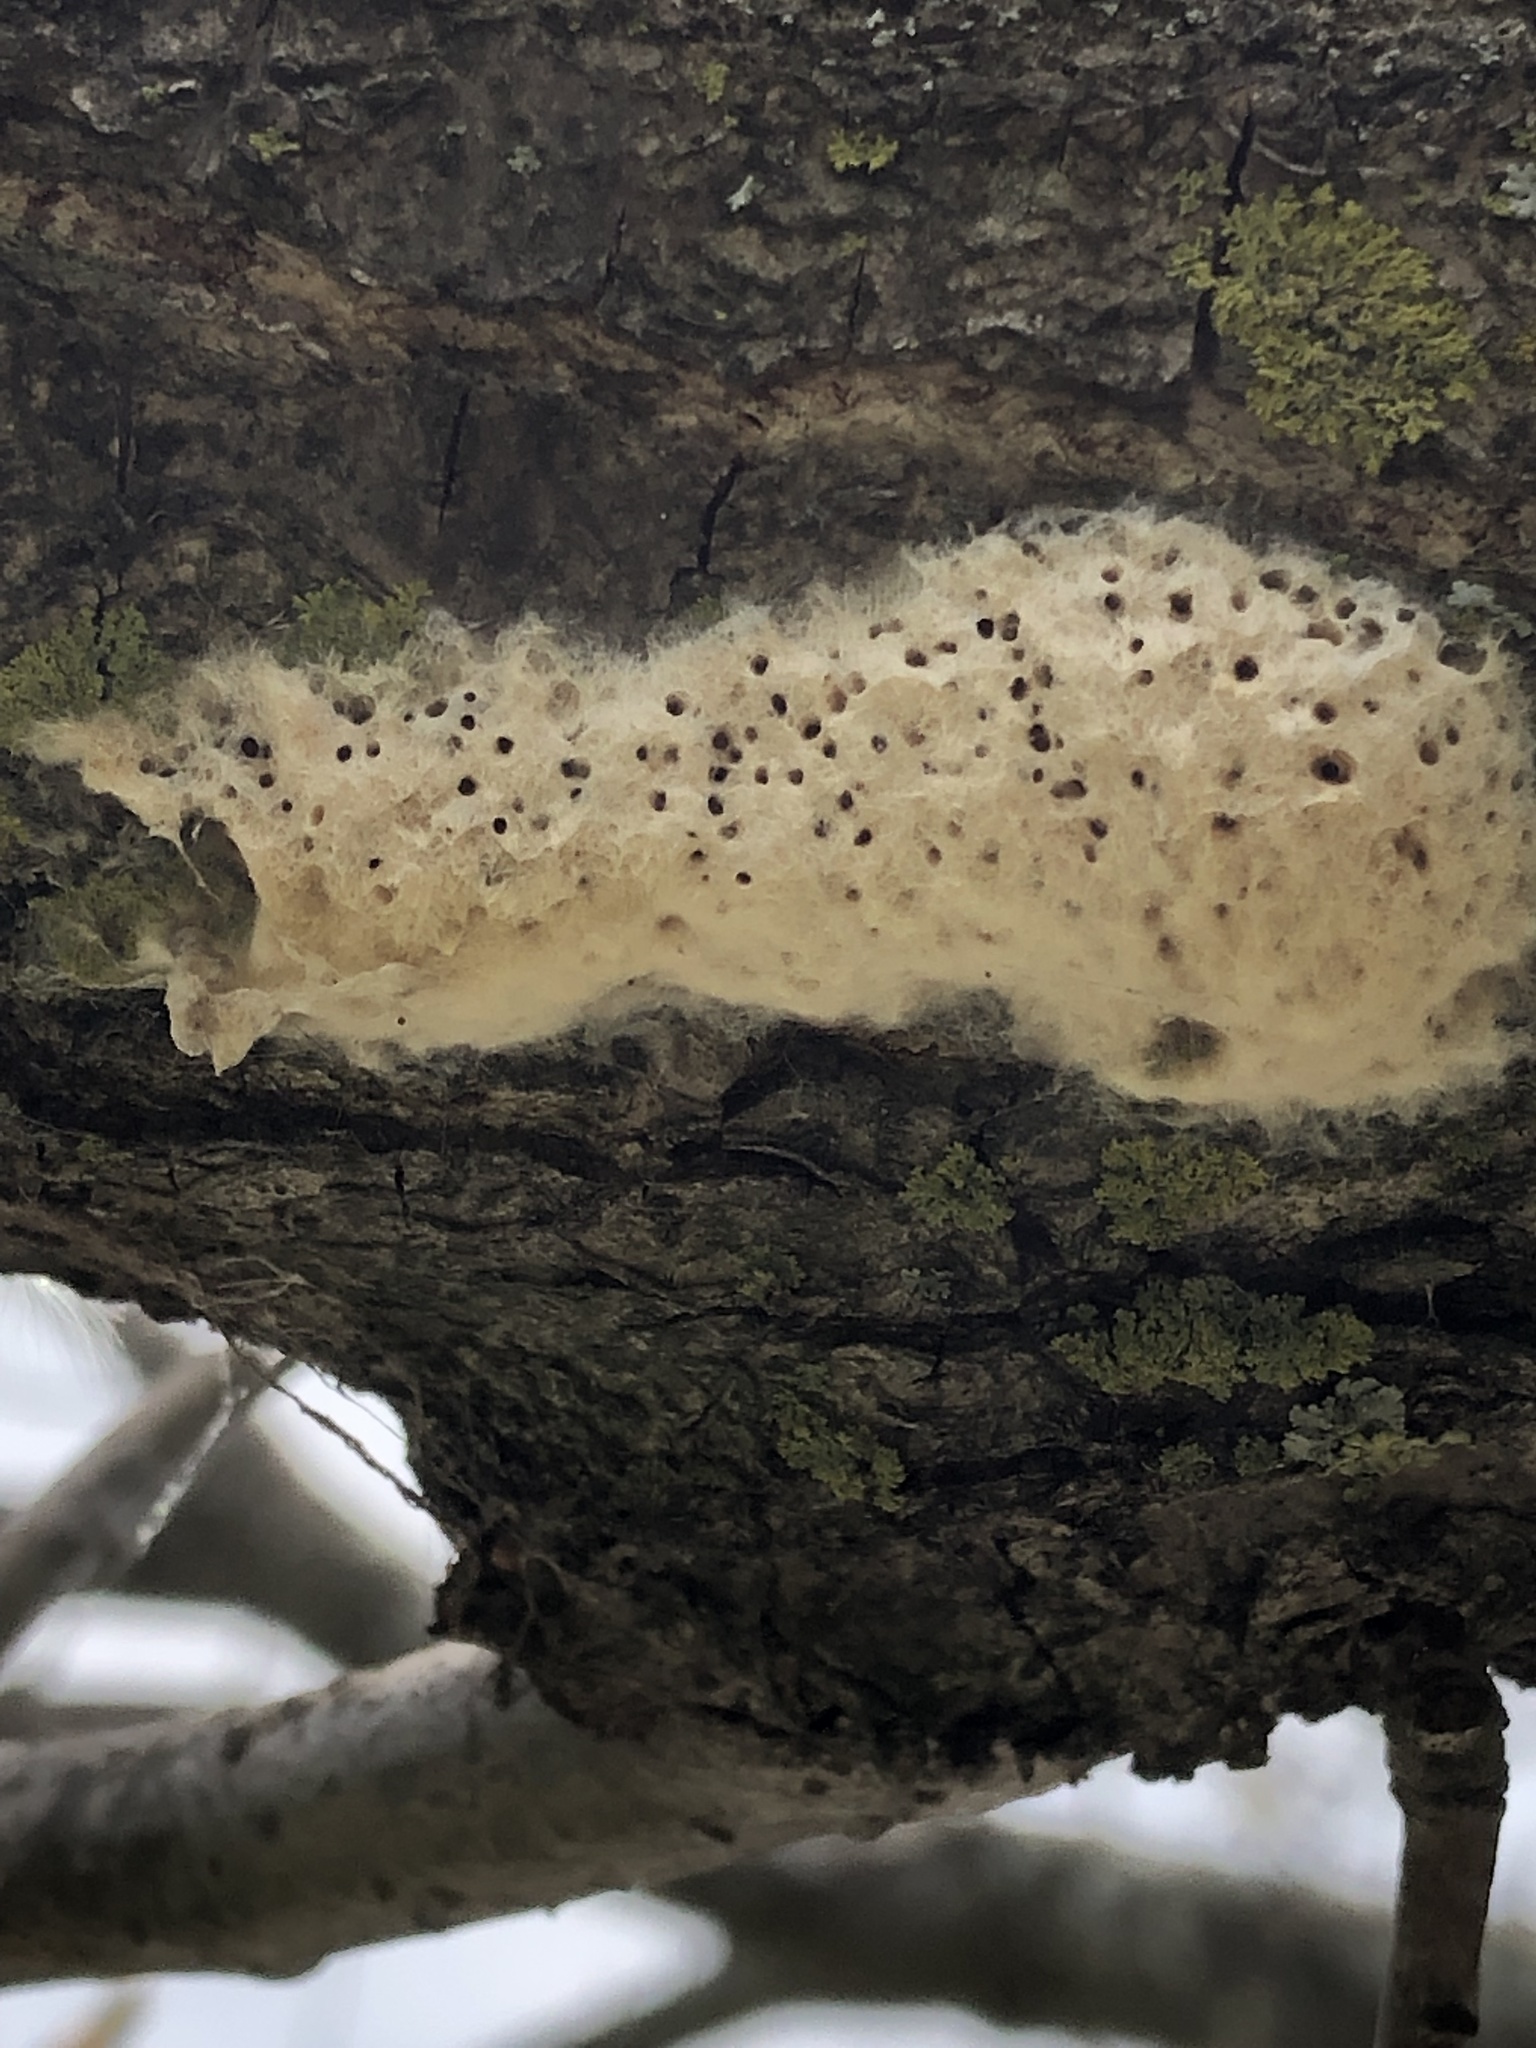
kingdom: Animalia
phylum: Arthropoda
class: Insecta
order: Lepidoptera
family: Erebidae
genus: Lymantria
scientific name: Lymantria dispar
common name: Gypsy moth
